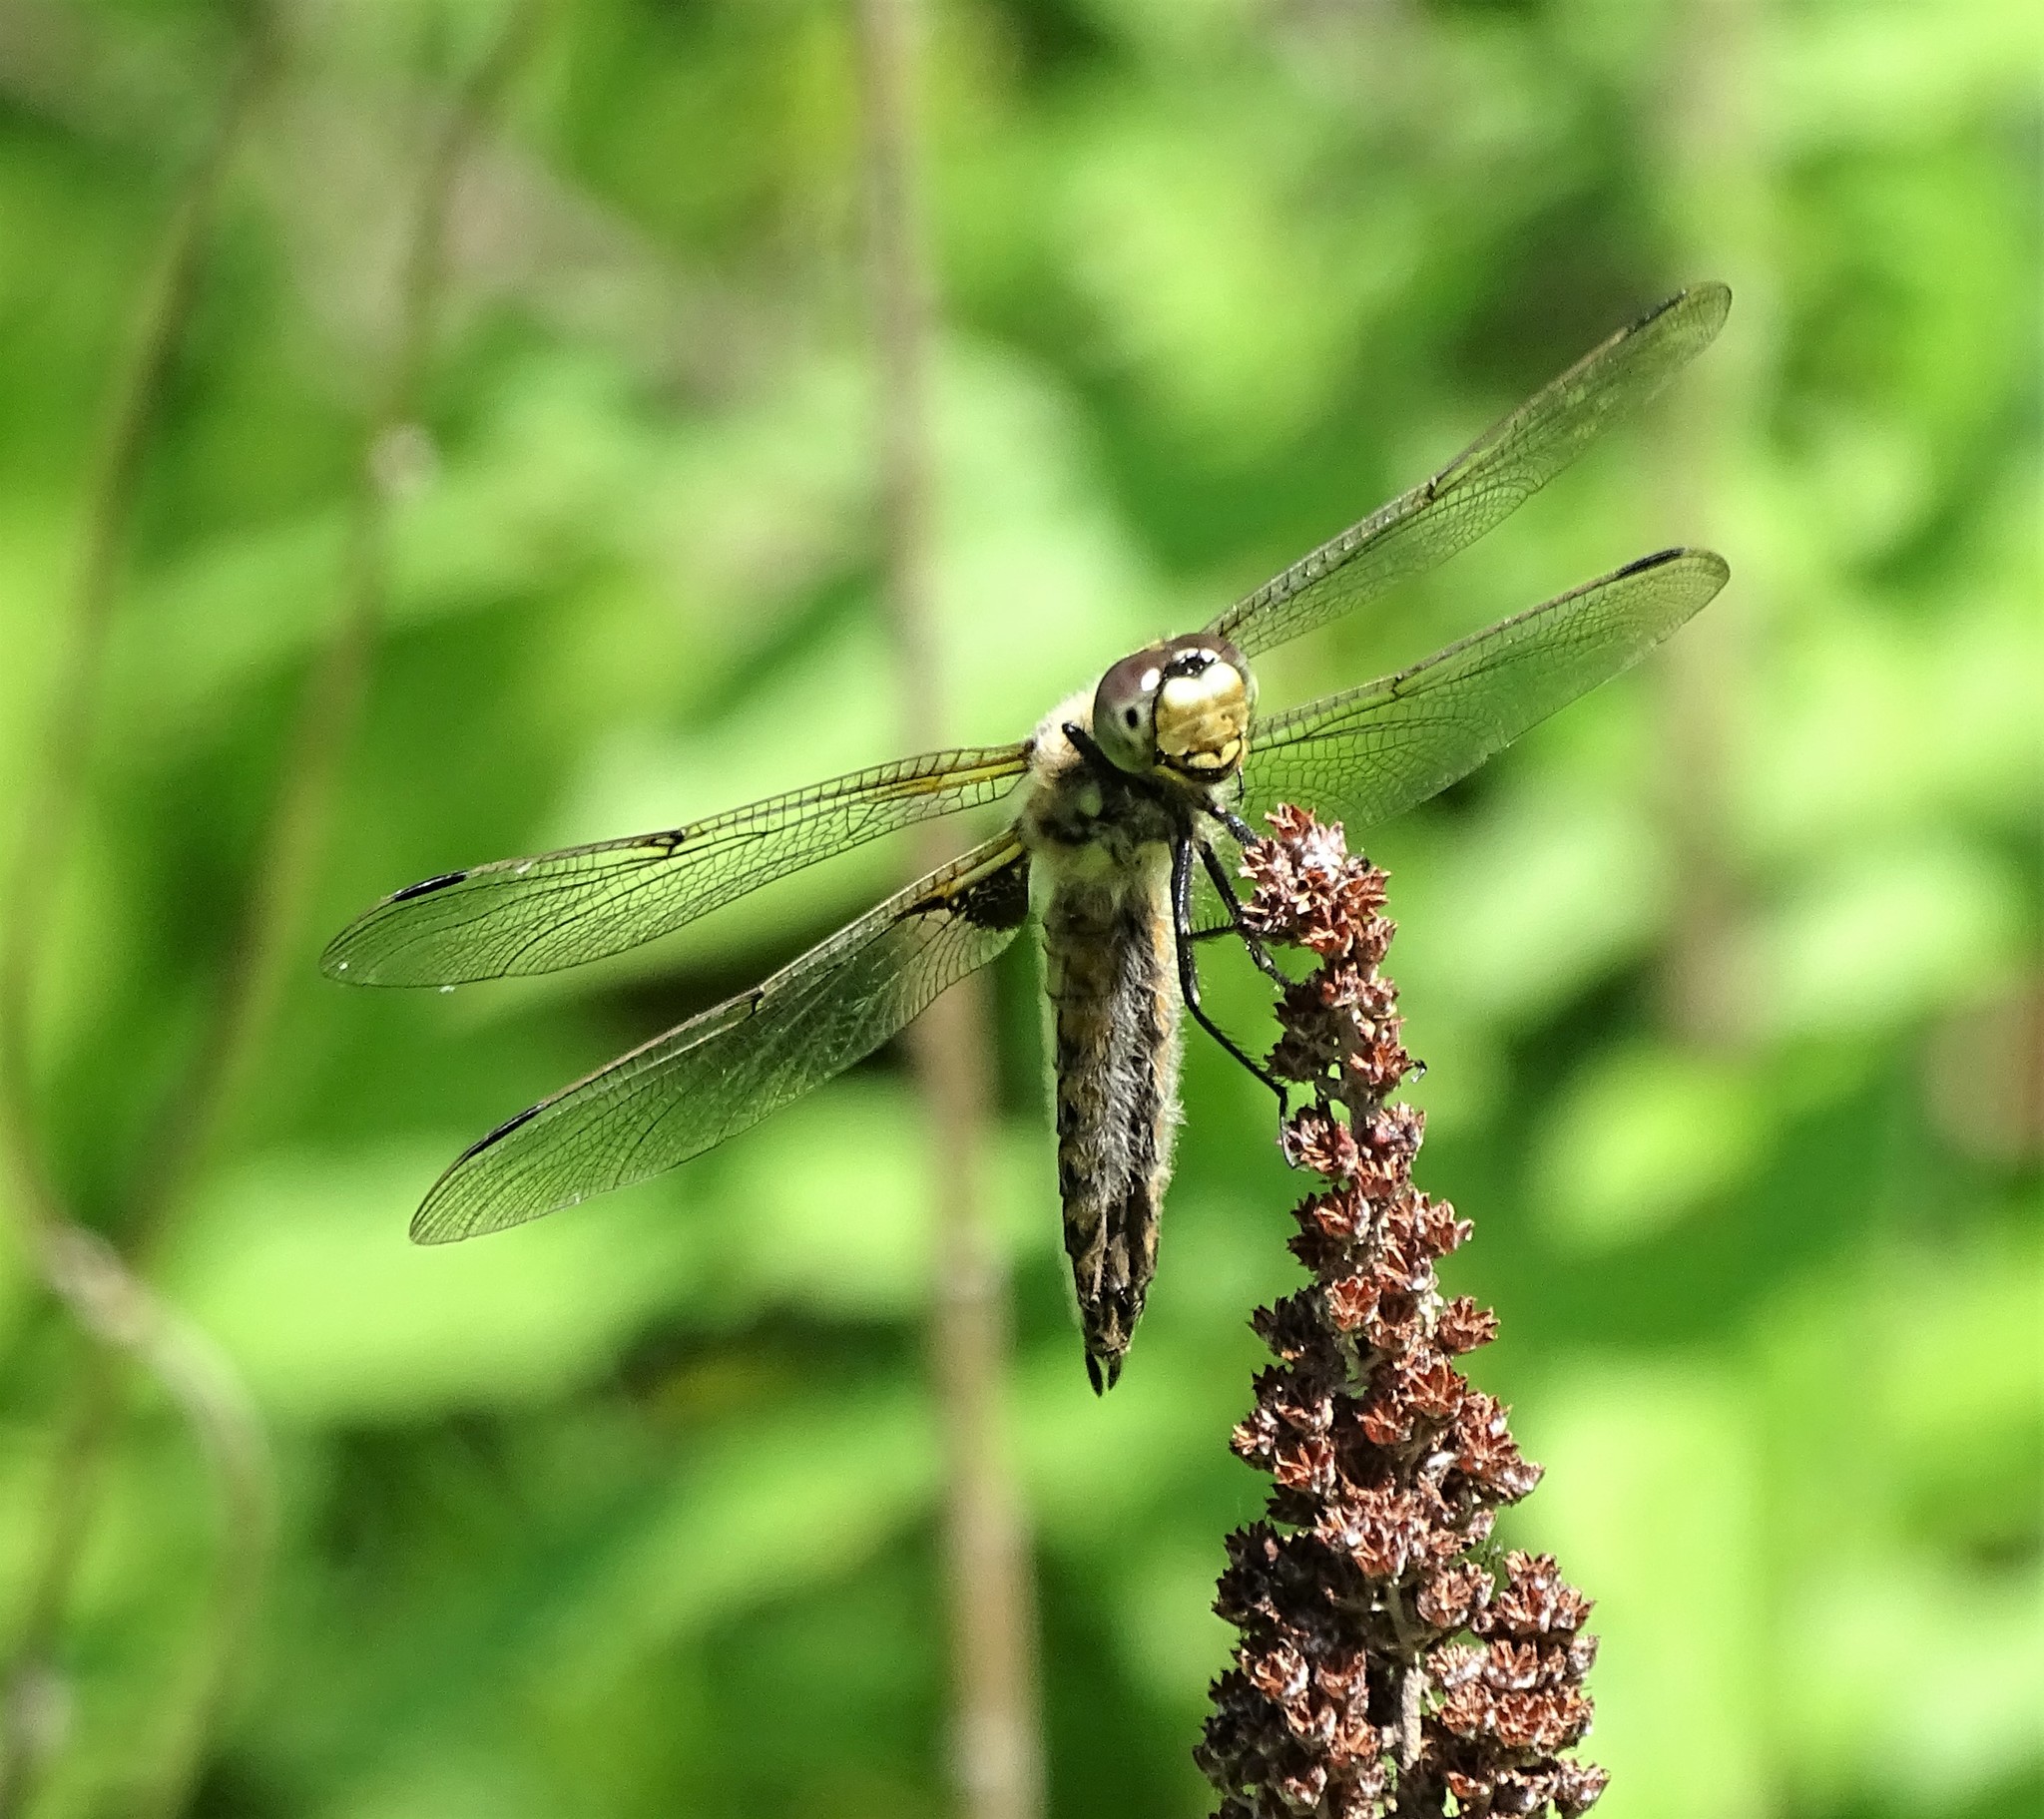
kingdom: Animalia
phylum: Arthropoda
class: Insecta
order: Odonata
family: Libellulidae
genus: Libellula
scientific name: Libellula quadrimaculata
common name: Four-spotted chaser
